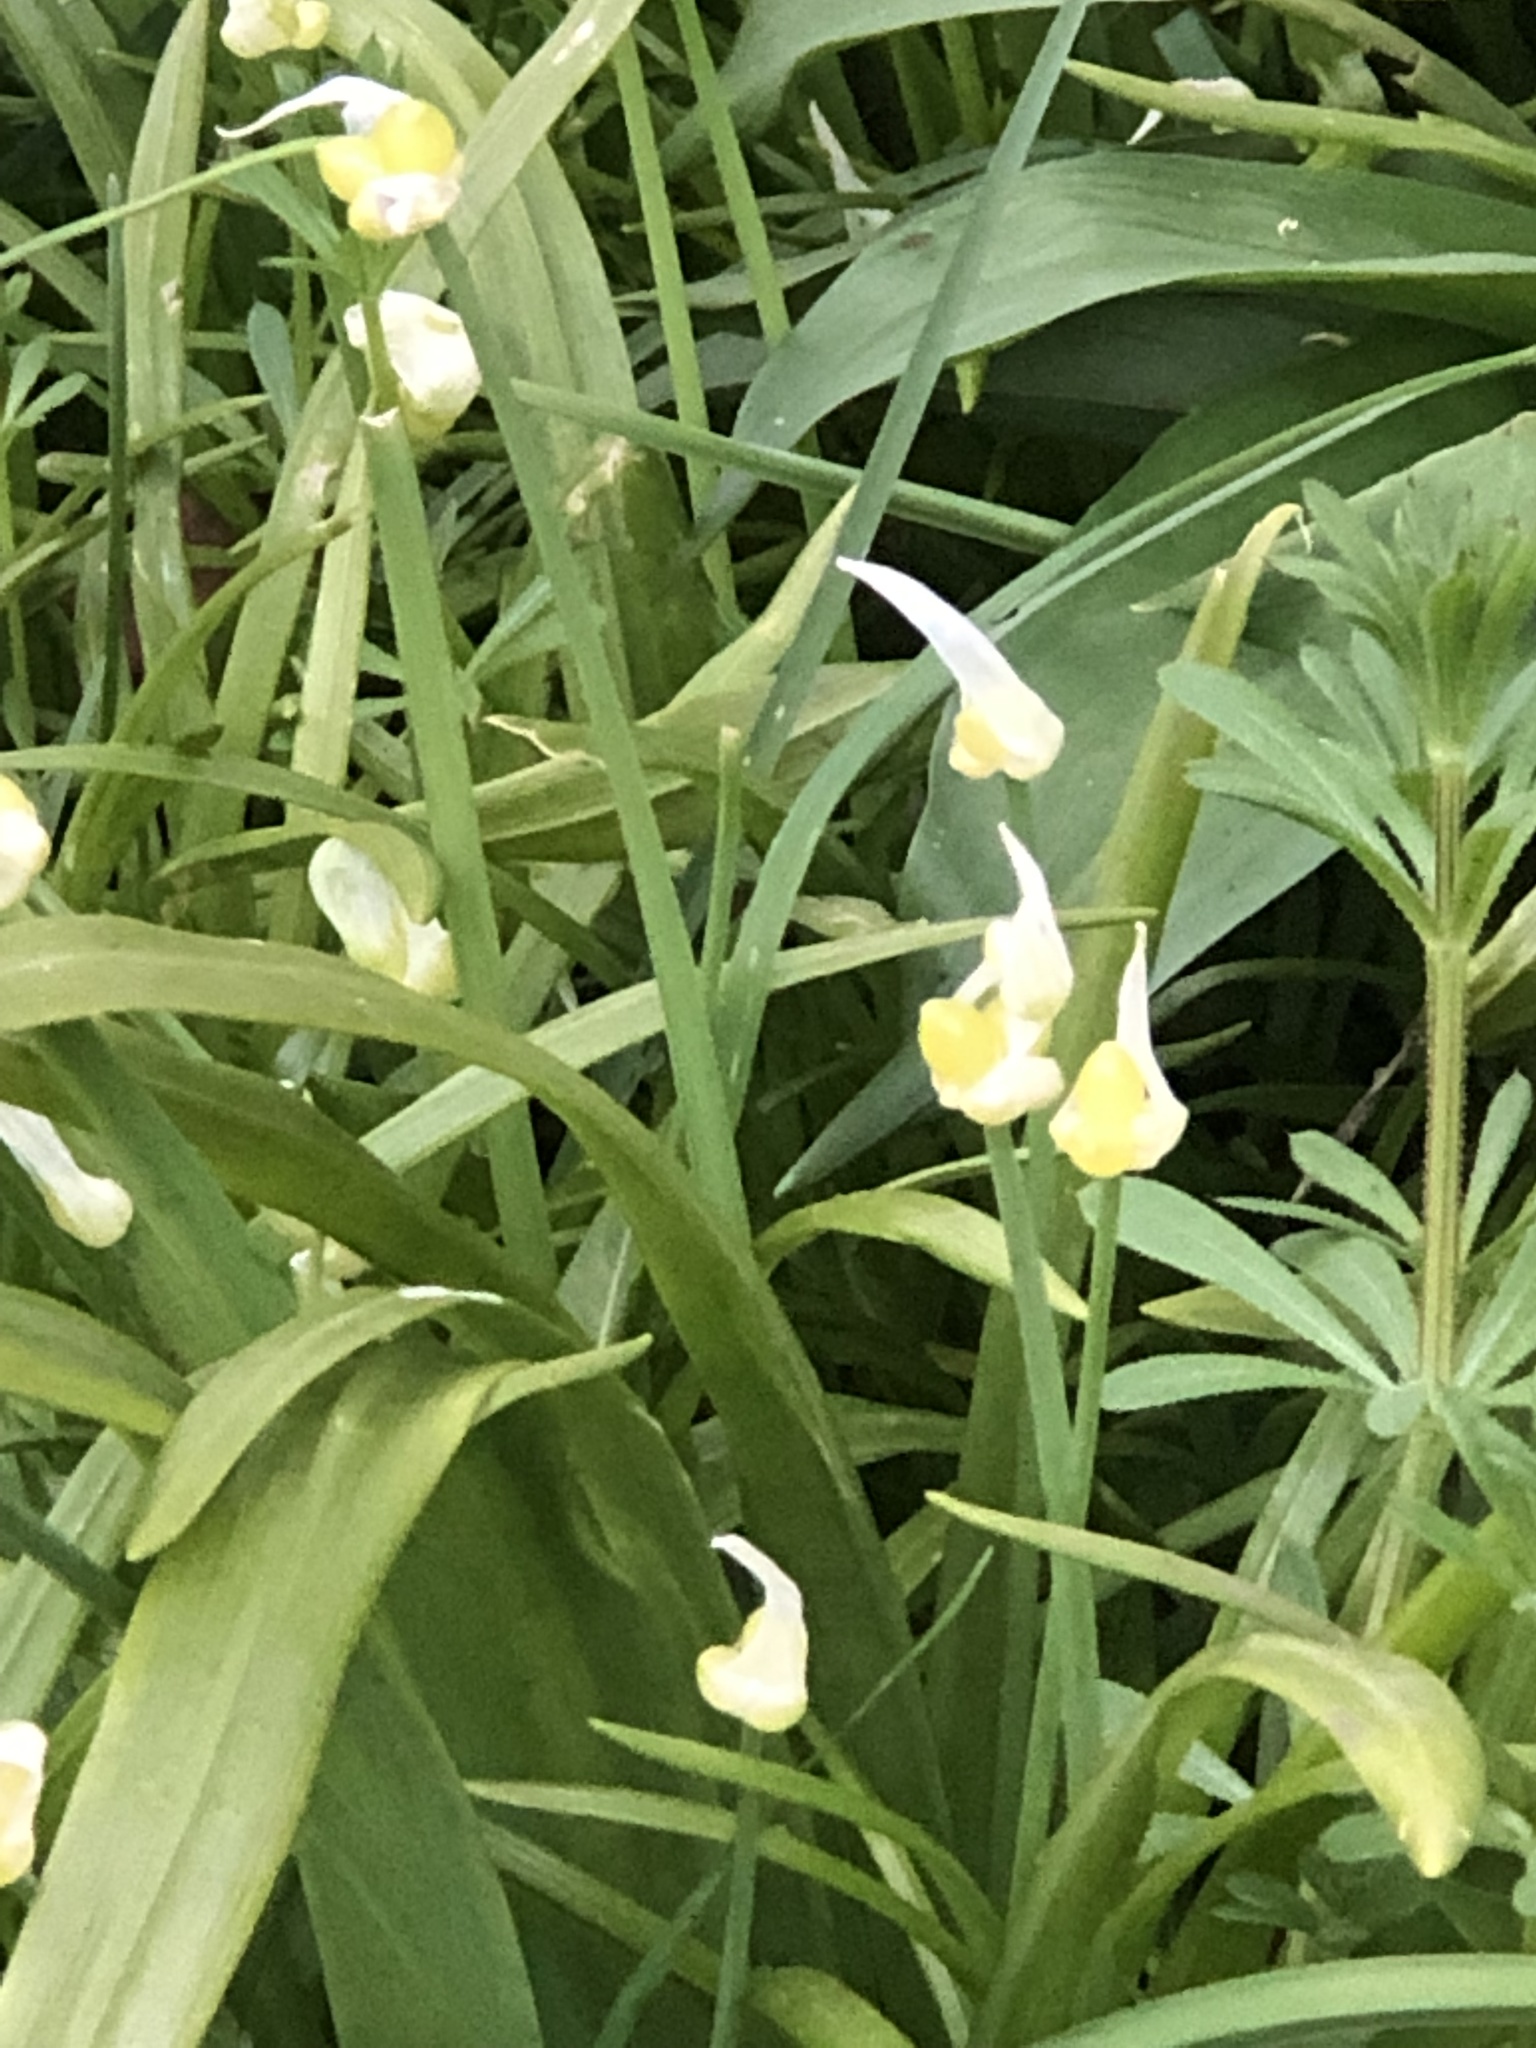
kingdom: Plantae
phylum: Tracheophyta
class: Liliopsida
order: Asparagales
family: Amaryllidaceae
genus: Allium
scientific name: Allium paradoxum
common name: Few-flowered garlic
